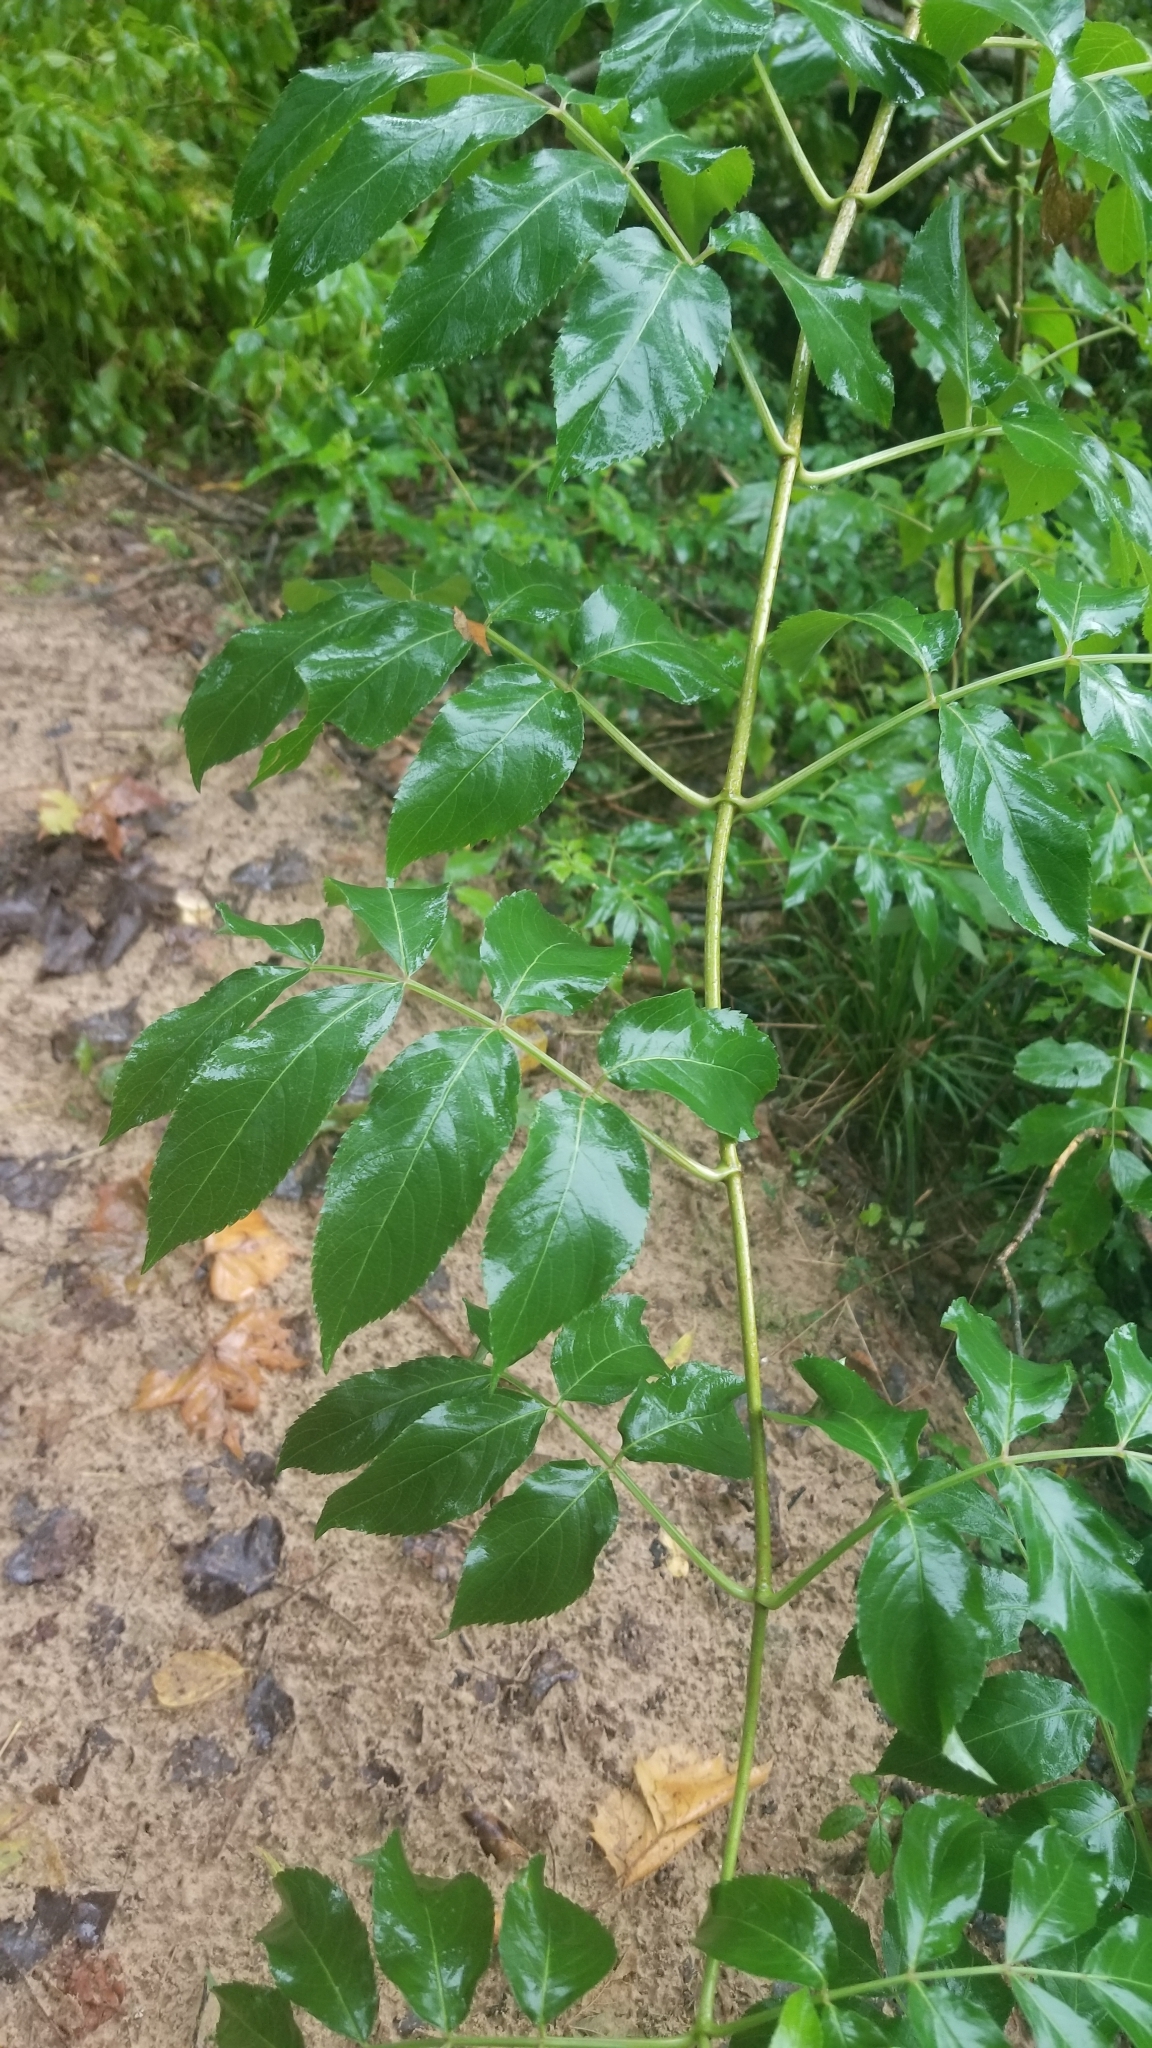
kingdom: Plantae
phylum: Tracheophyta
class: Magnoliopsida
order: Dipsacales
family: Viburnaceae
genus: Sambucus
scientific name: Sambucus canadensis
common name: American elder
